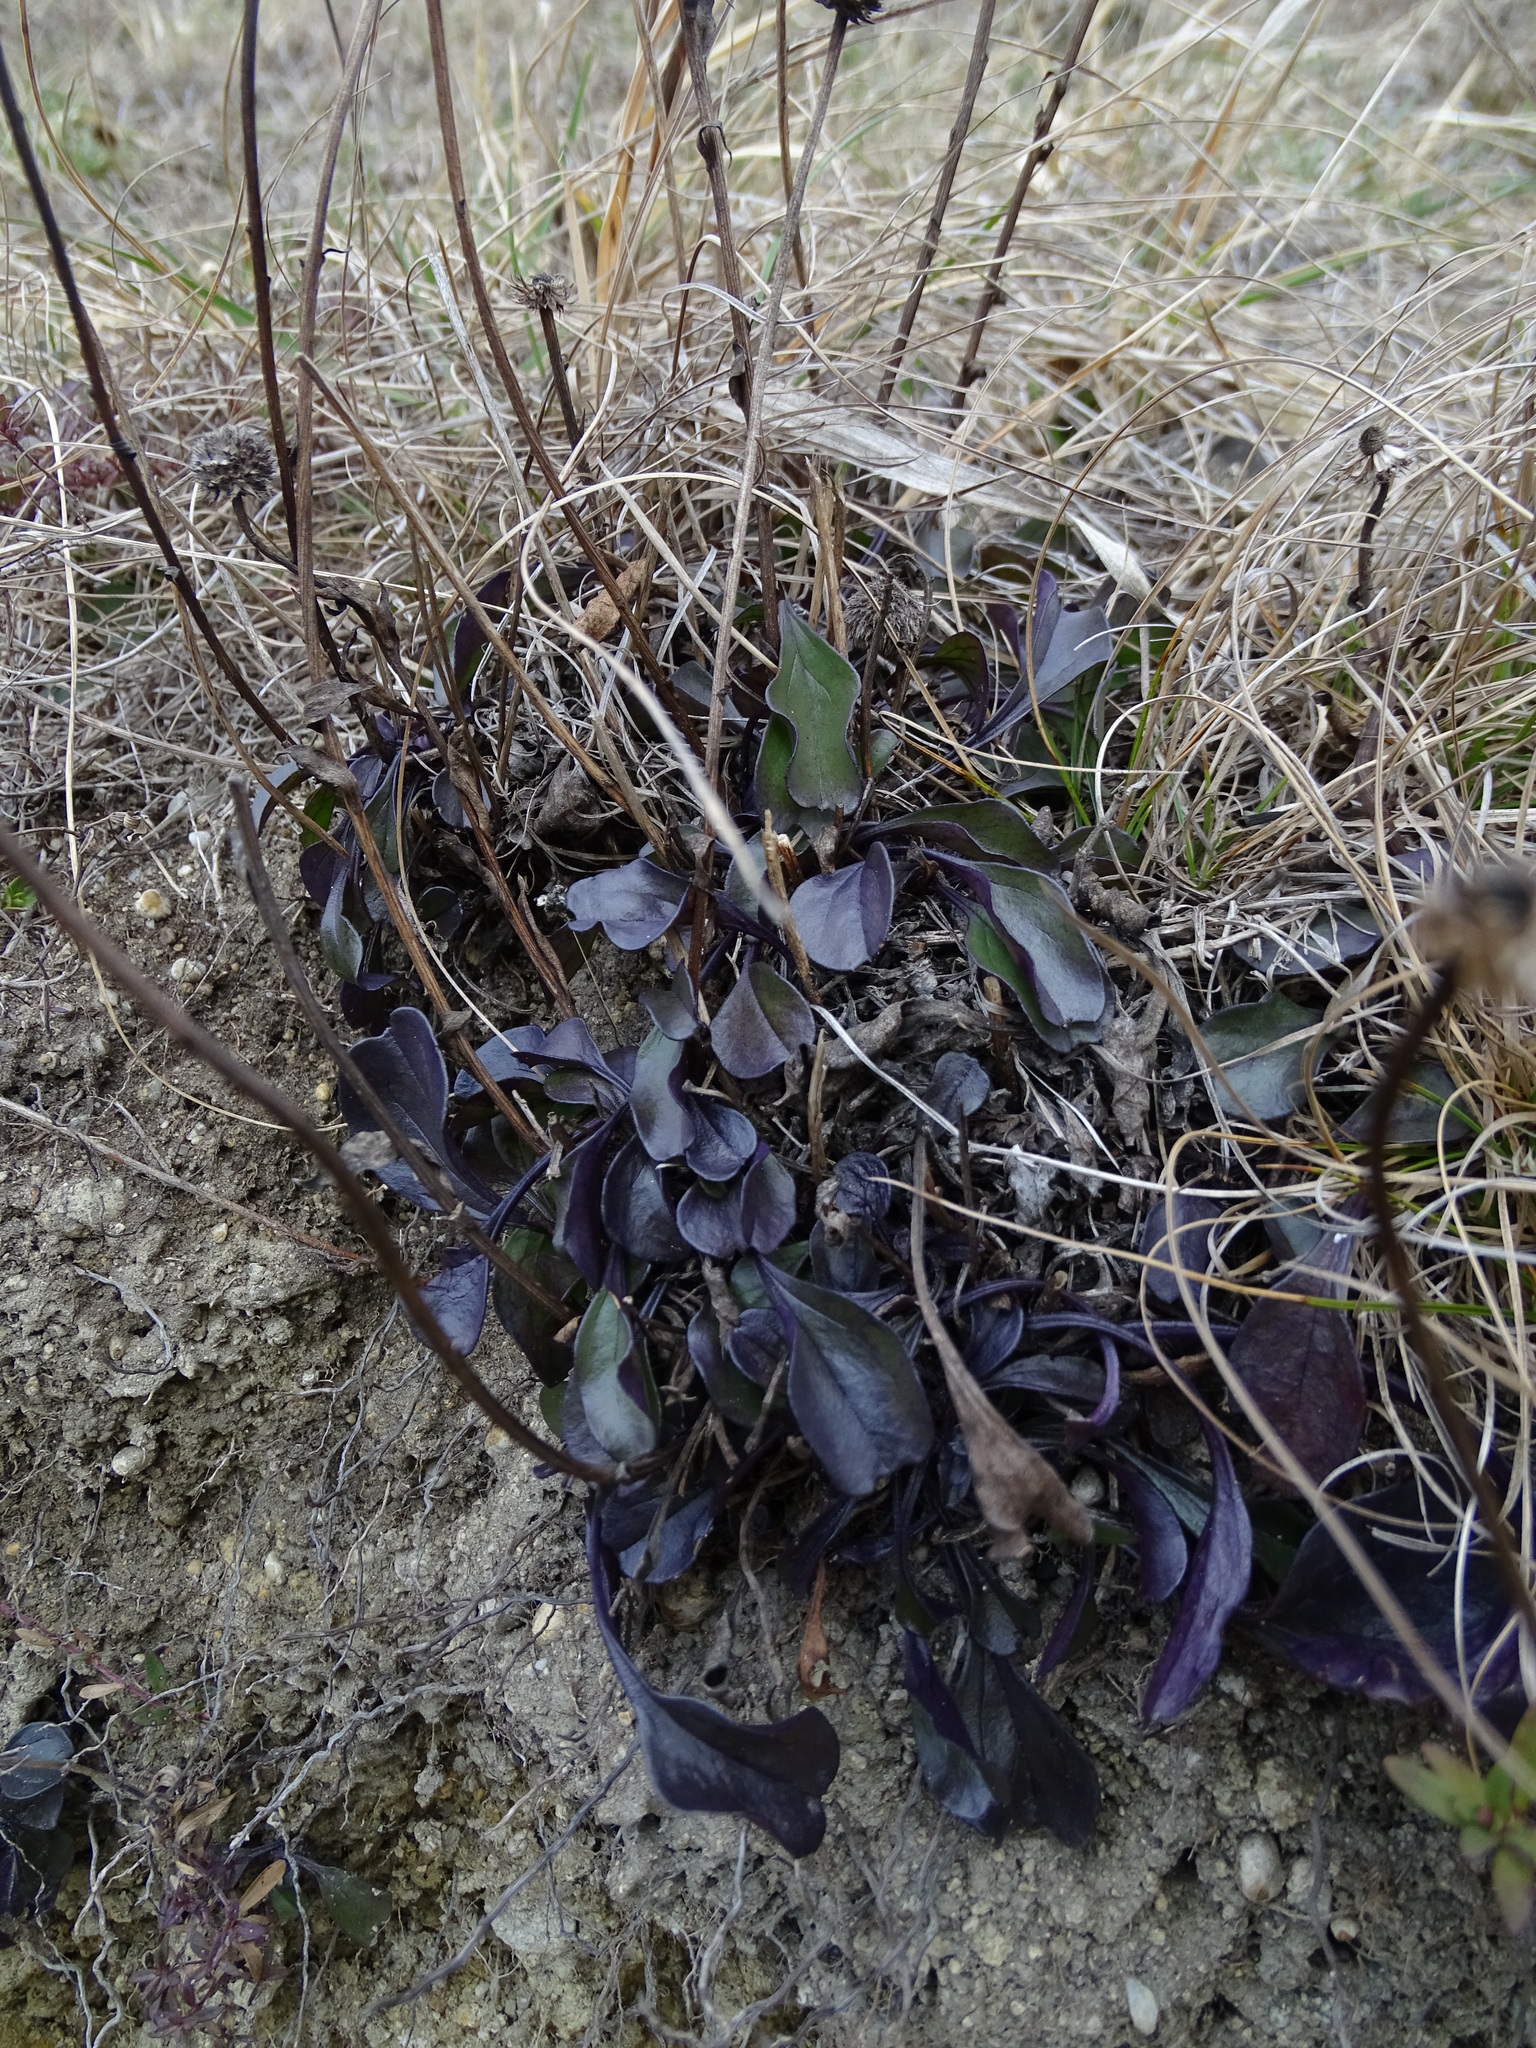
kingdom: Plantae
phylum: Tracheophyta
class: Magnoliopsida
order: Lamiales
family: Plantaginaceae
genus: Globularia
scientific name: Globularia bisnagarica
